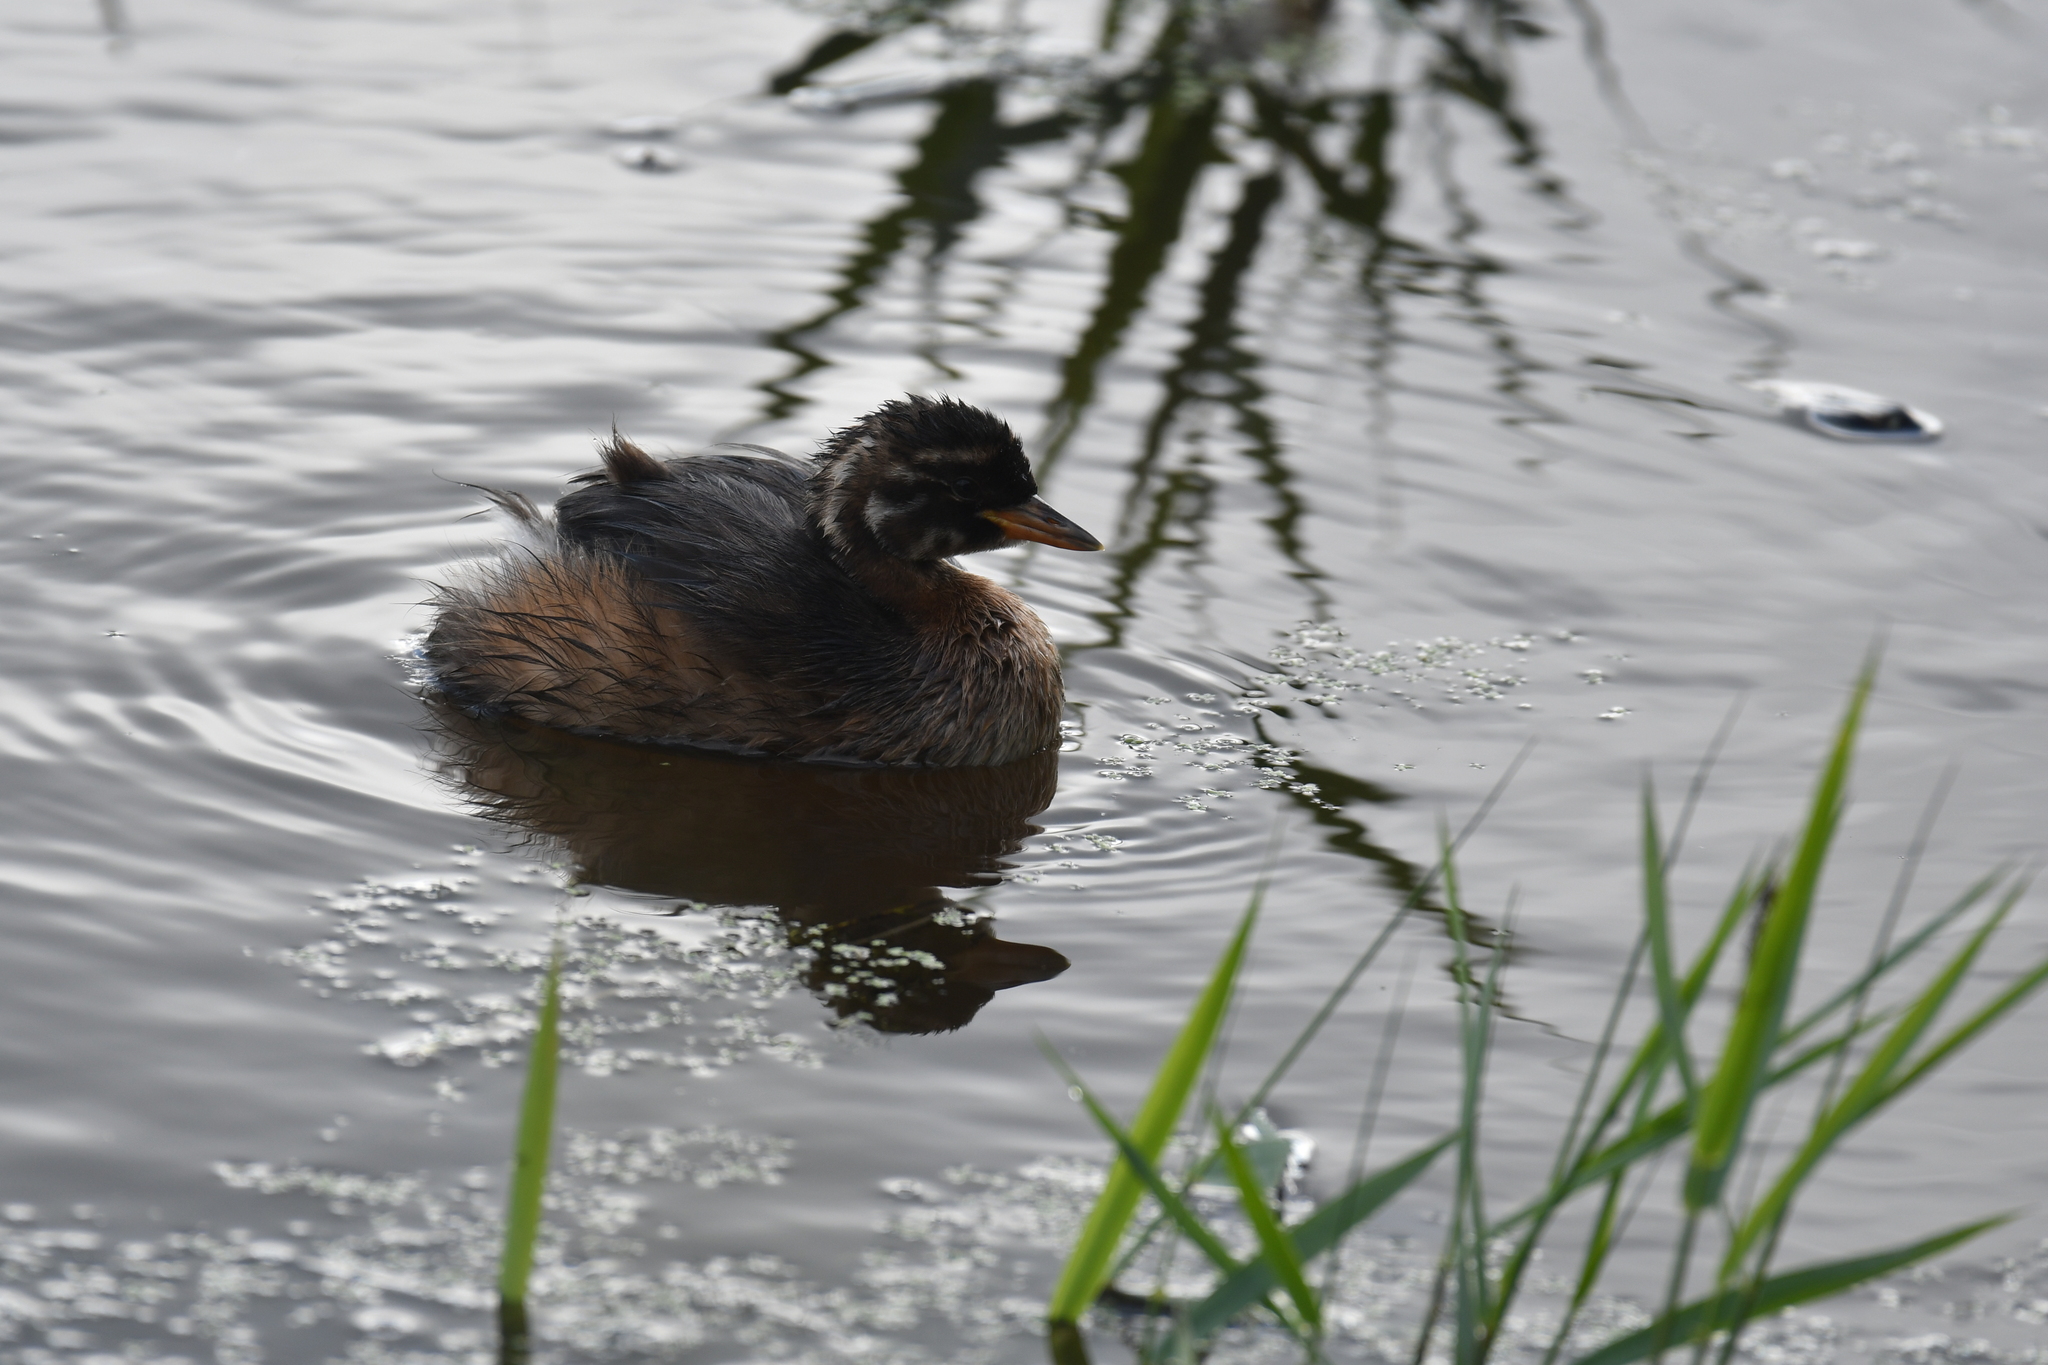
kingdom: Animalia
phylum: Chordata
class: Aves
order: Podicipediformes
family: Podicipedidae
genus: Tachybaptus
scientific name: Tachybaptus ruficollis
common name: Little grebe
